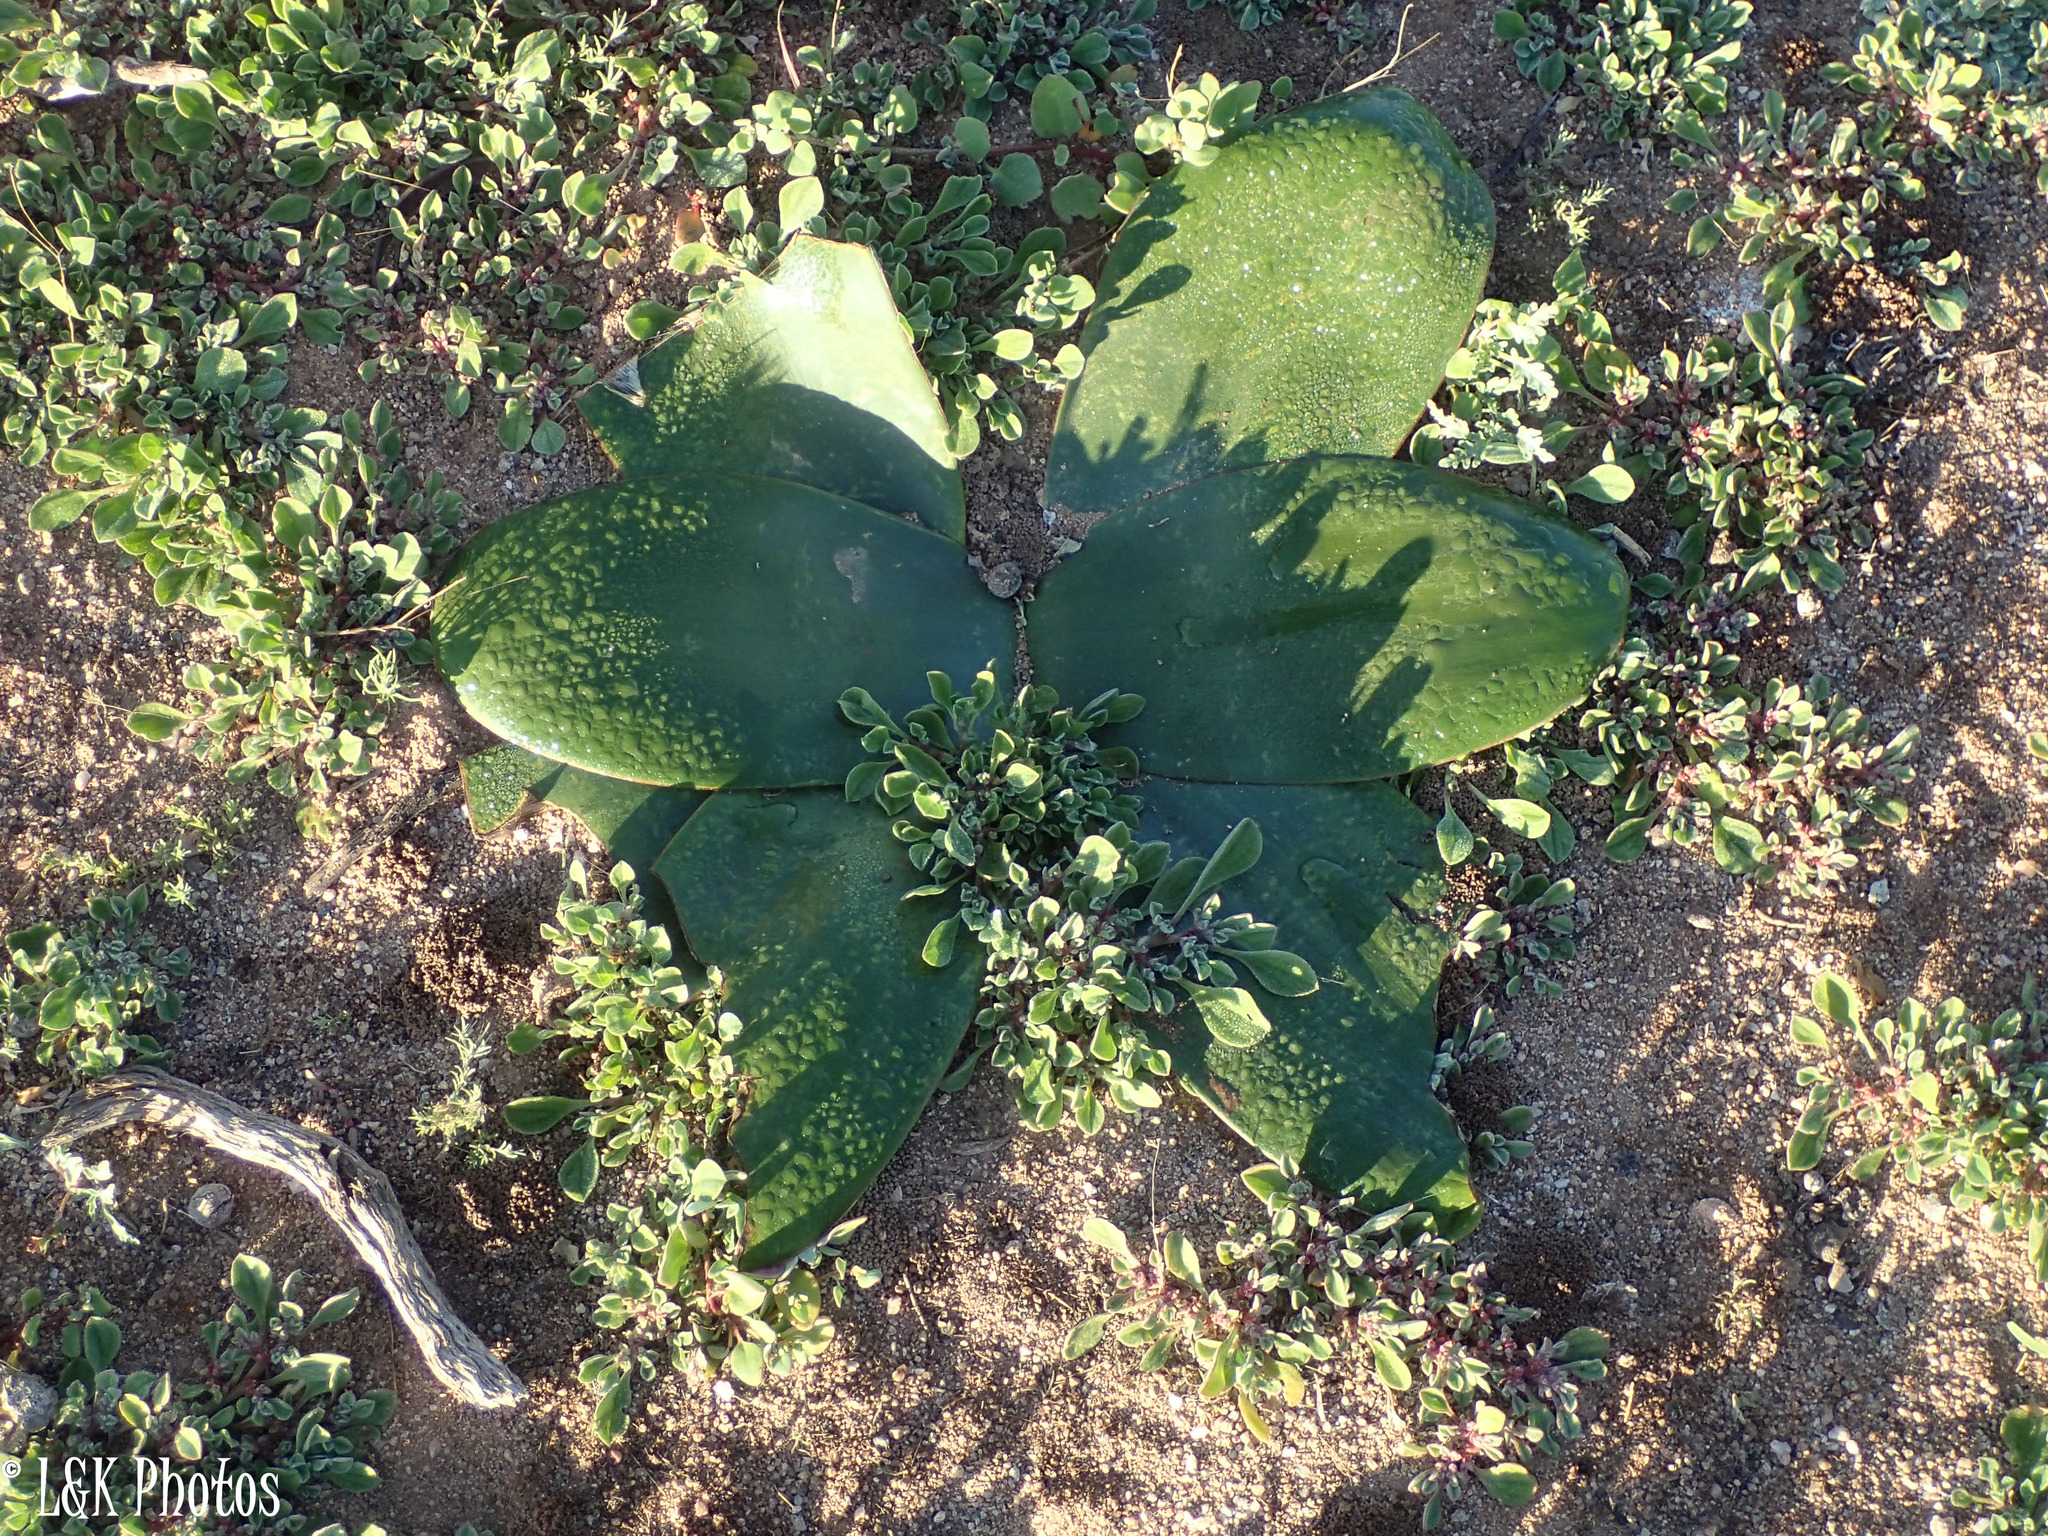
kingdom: Plantae
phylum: Tracheophyta
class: Liliopsida
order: Asparagales
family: Amaryllidaceae
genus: Brunsvigia
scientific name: Brunsvigia bosmaniae
